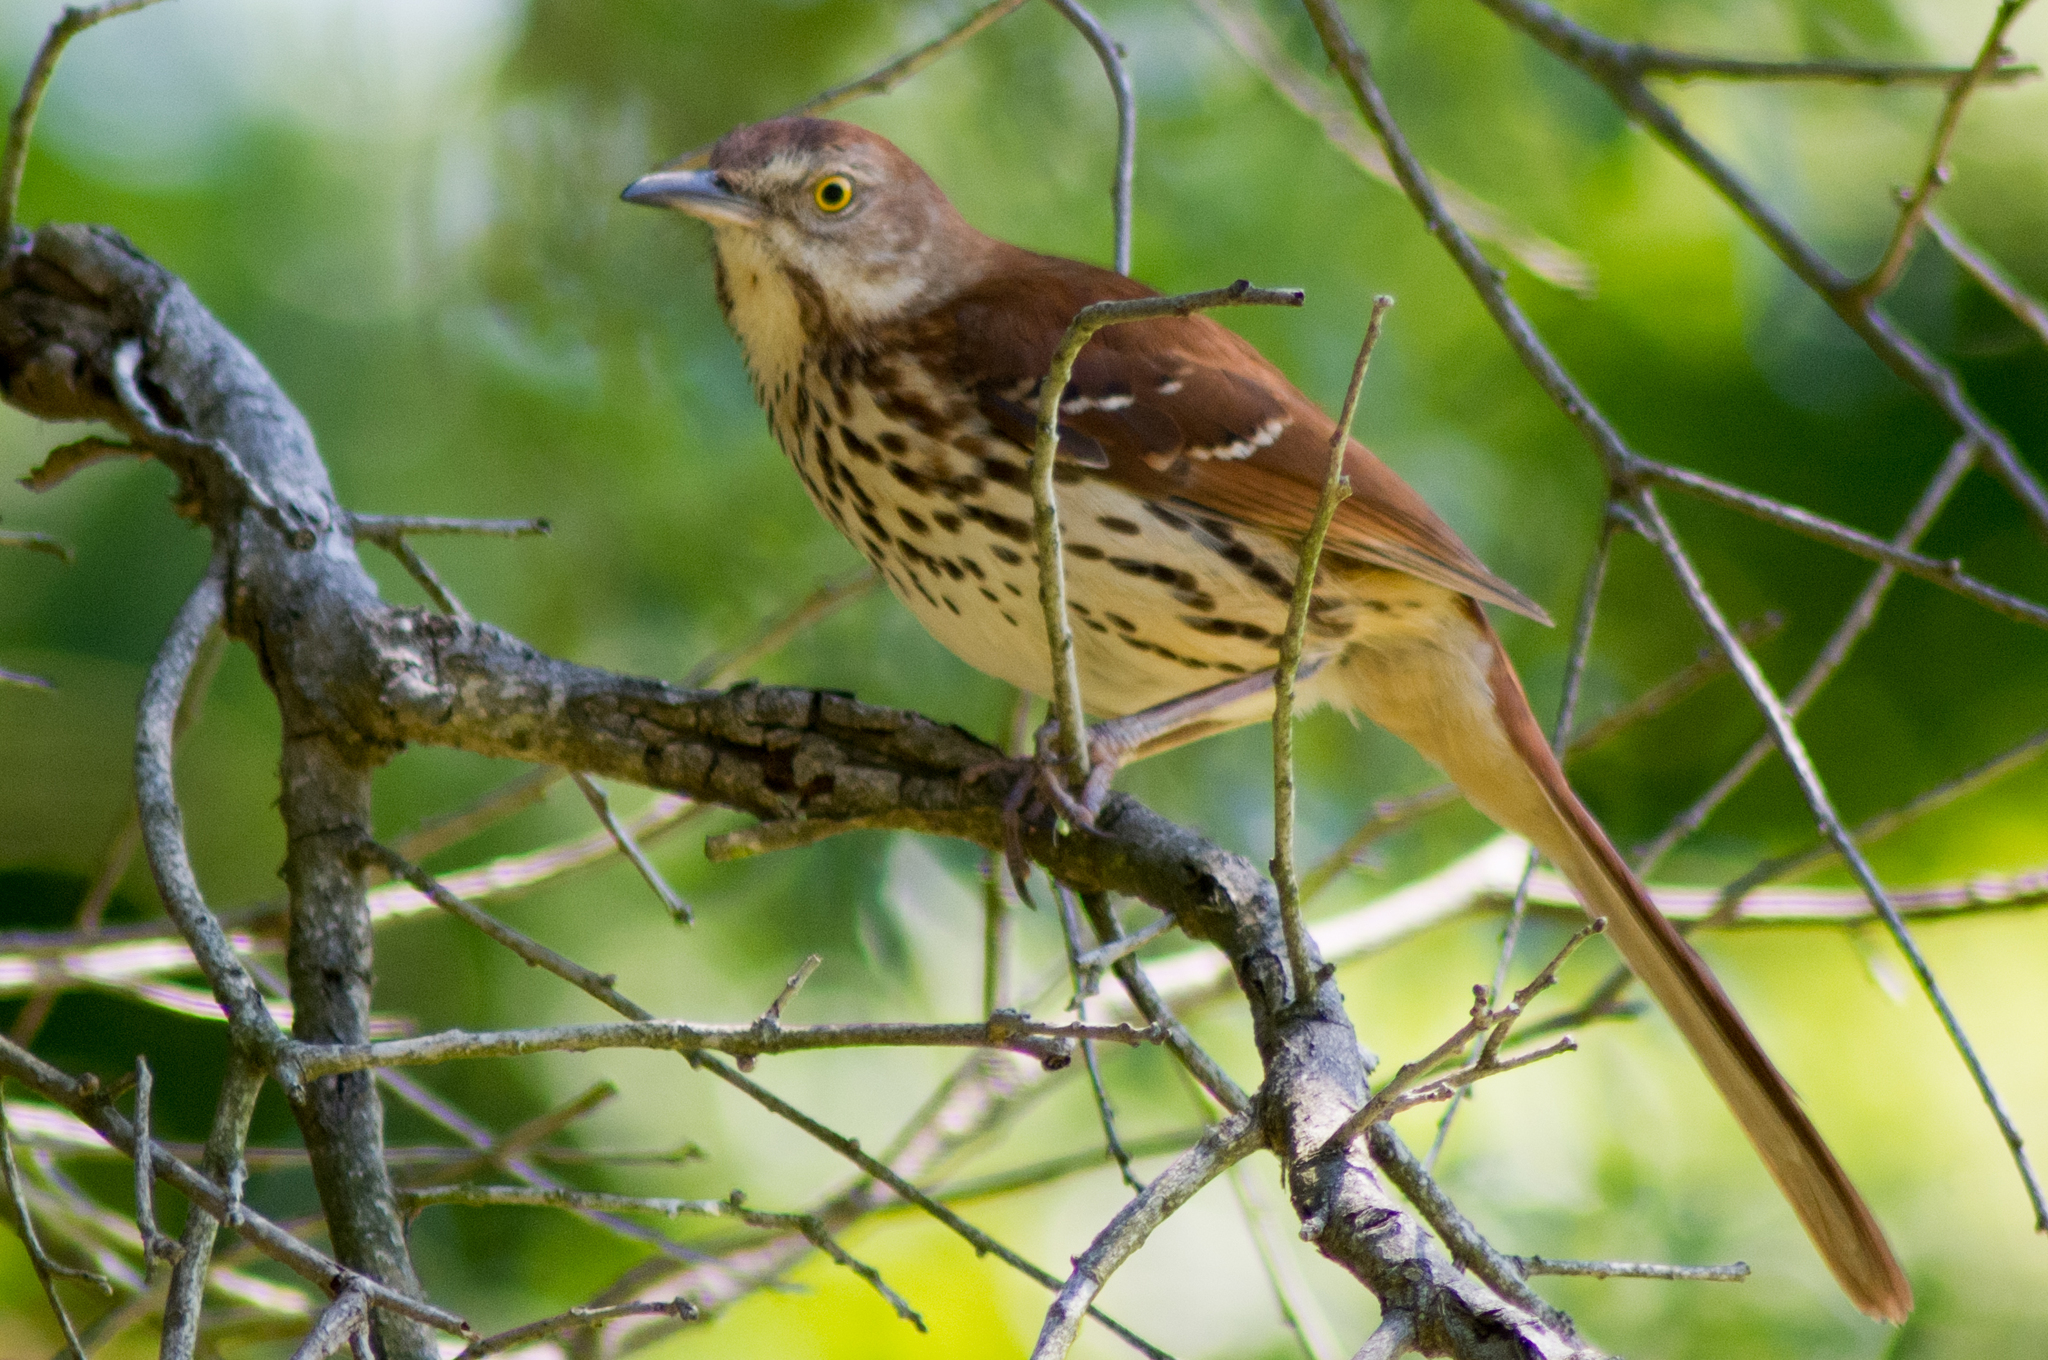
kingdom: Animalia
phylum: Chordata
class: Aves
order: Passeriformes
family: Mimidae
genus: Toxostoma
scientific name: Toxostoma rufum
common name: Brown thrasher
